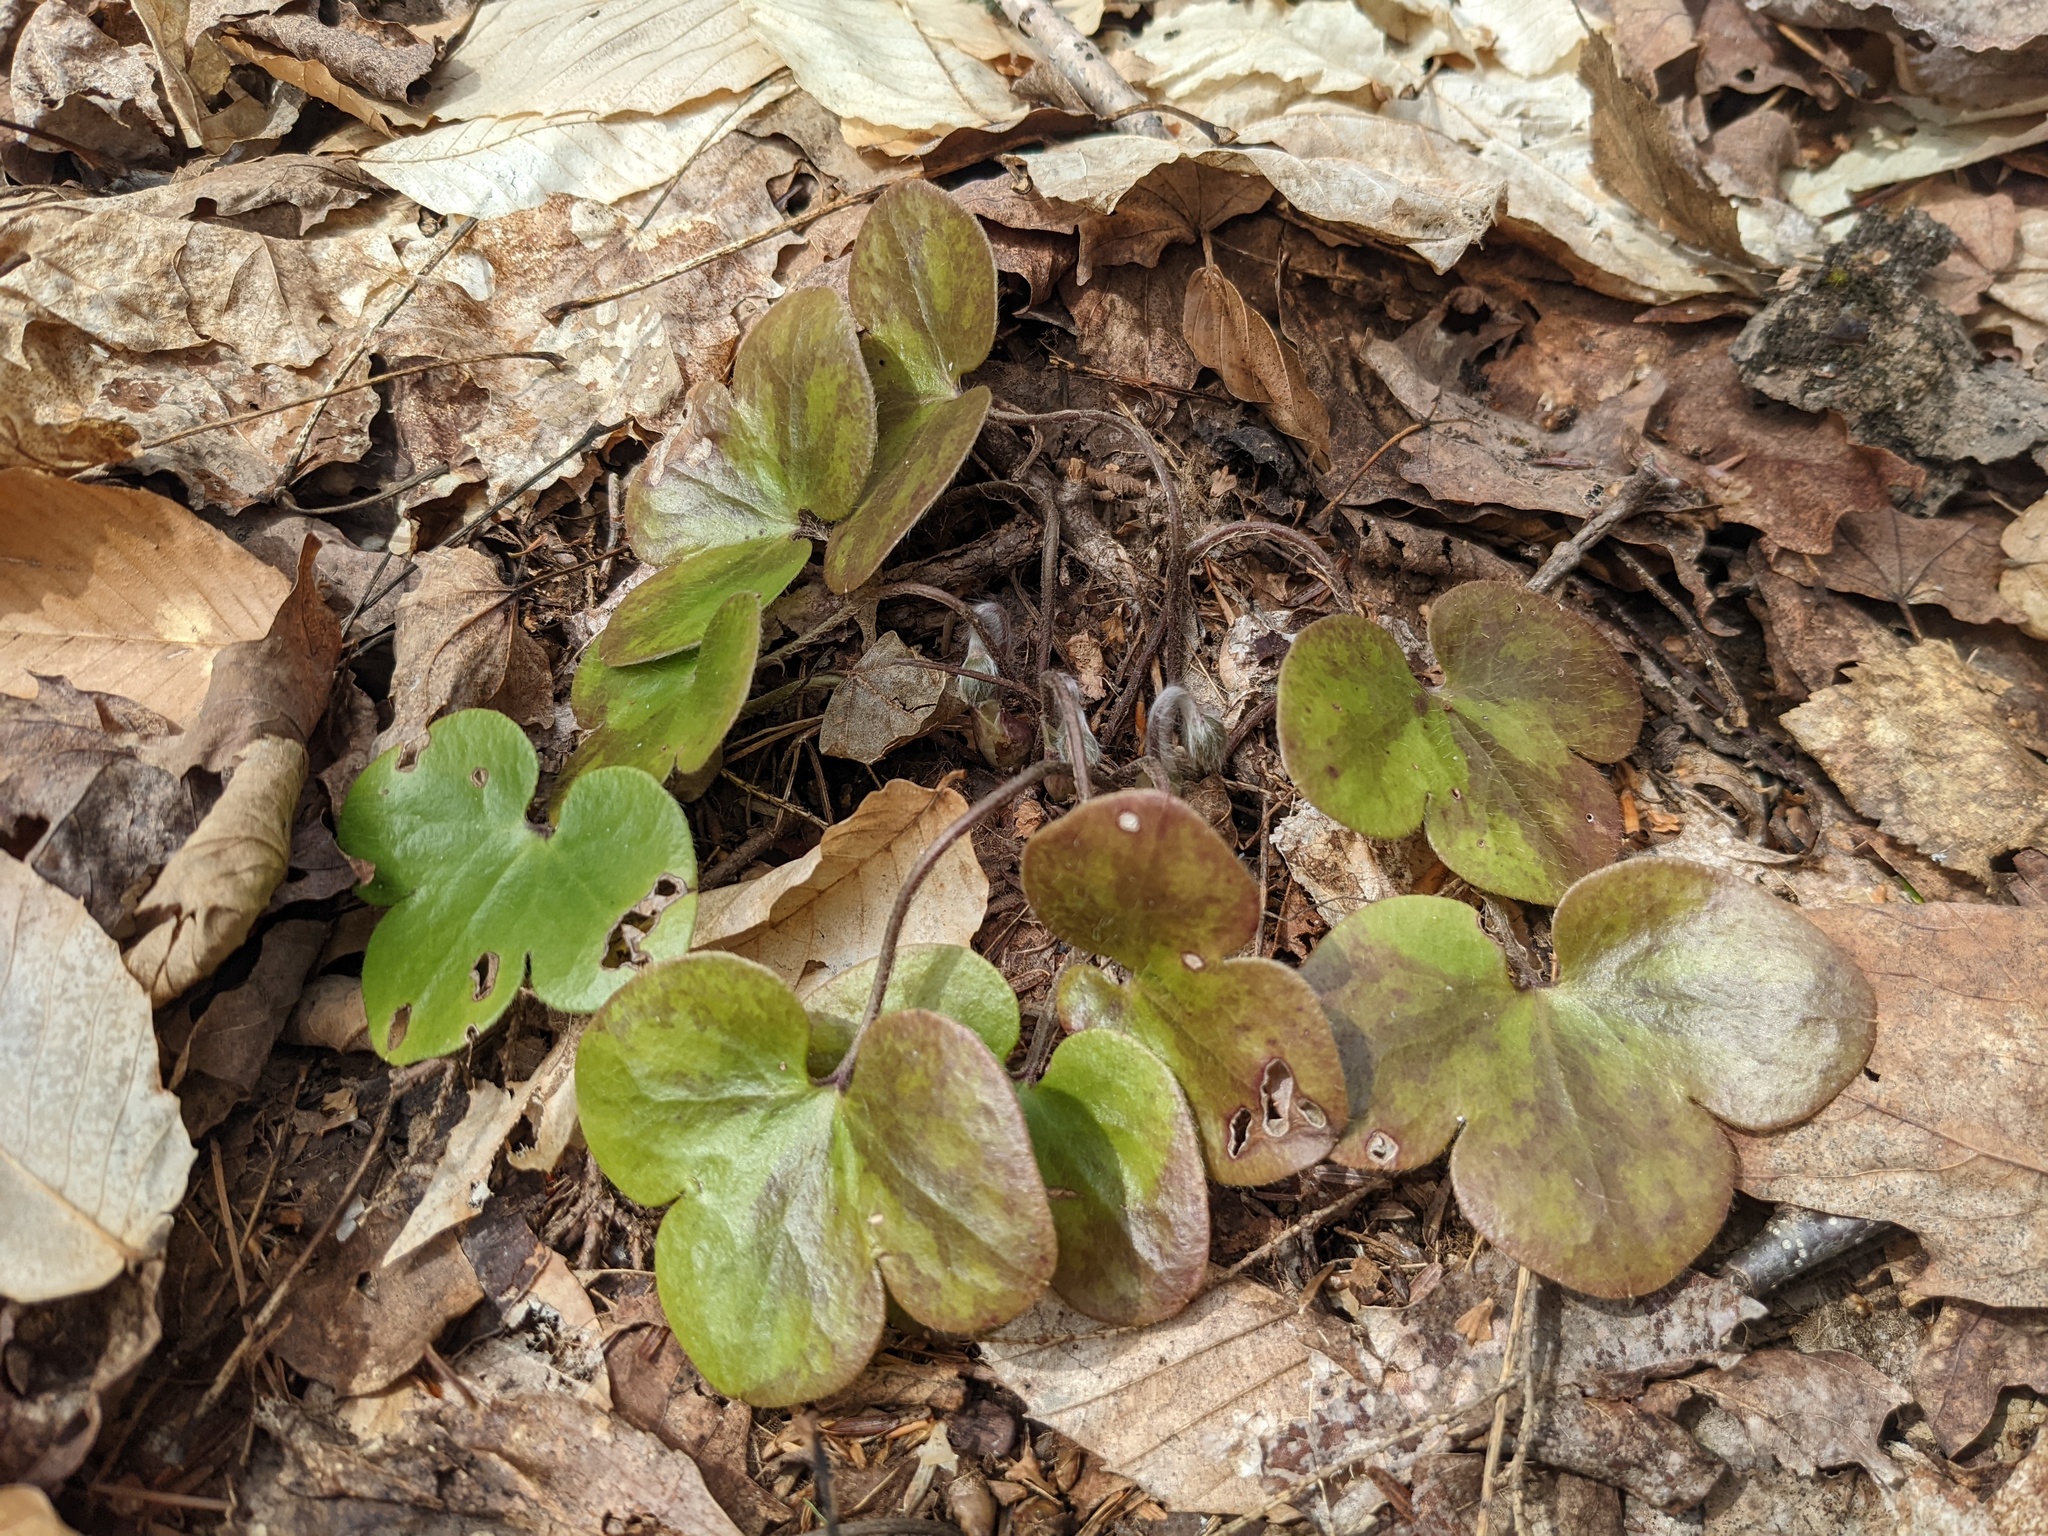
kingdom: Plantae
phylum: Tracheophyta
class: Magnoliopsida
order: Ranunculales
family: Ranunculaceae
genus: Hepatica
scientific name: Hepatica americana
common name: American hepatica
